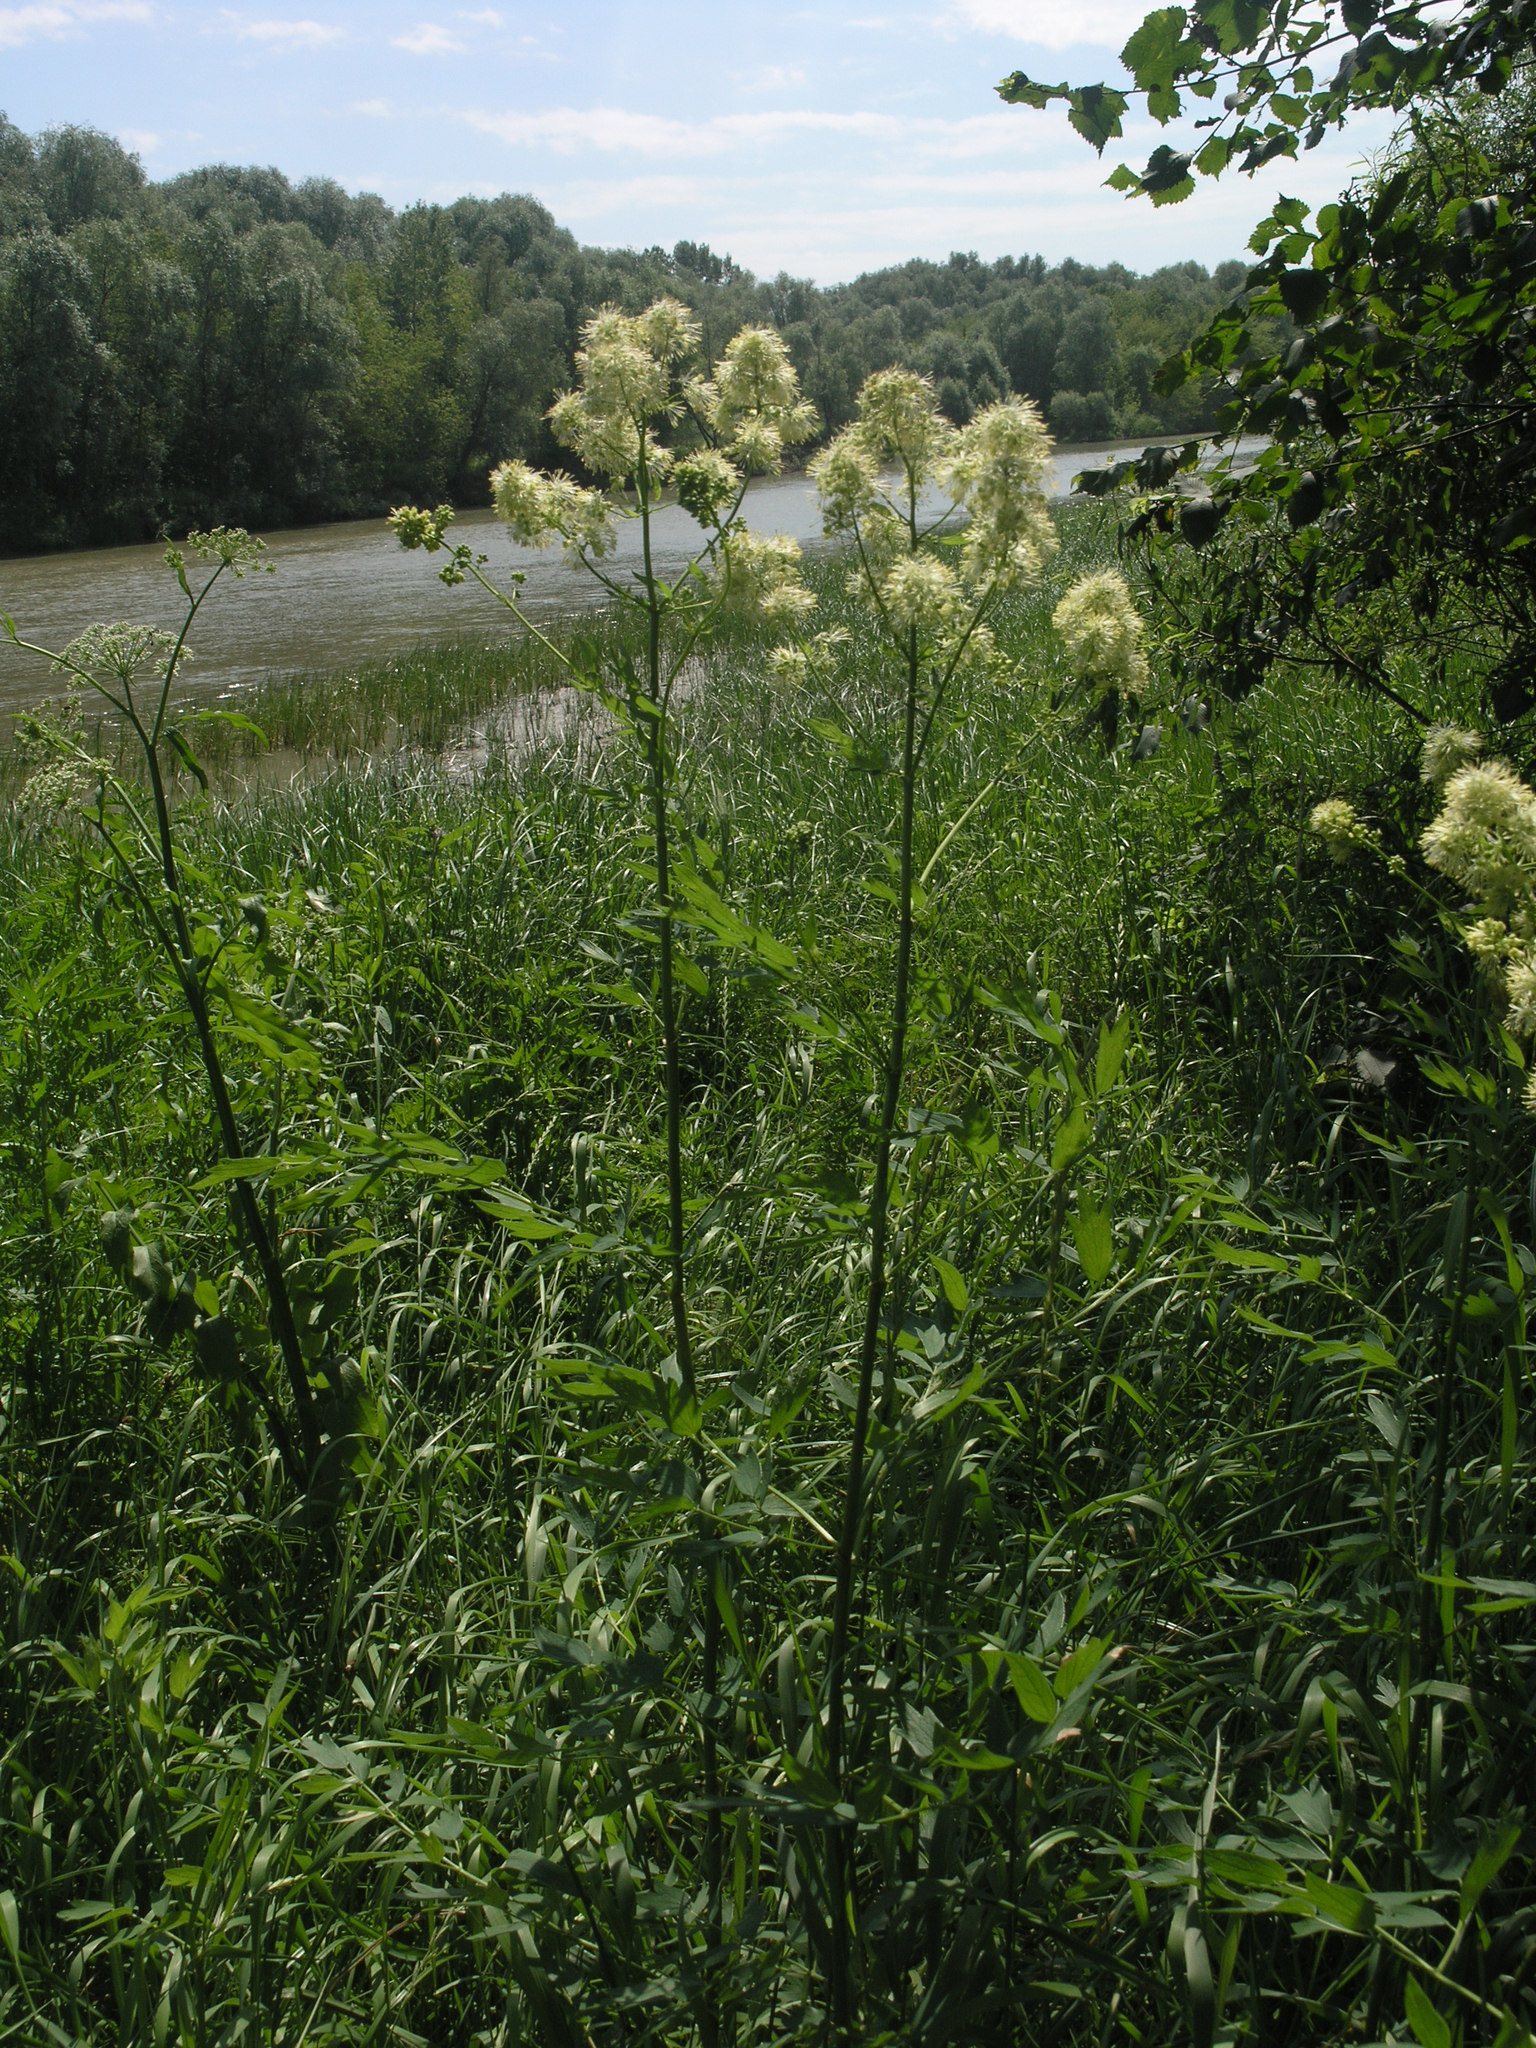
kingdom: Plantae
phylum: Tracheophyta
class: Magnoliopsida
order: Ranunculales
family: Ranunculaceae
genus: Thalictrum
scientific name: Thalictrum flavum
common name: Common meadow-rue
